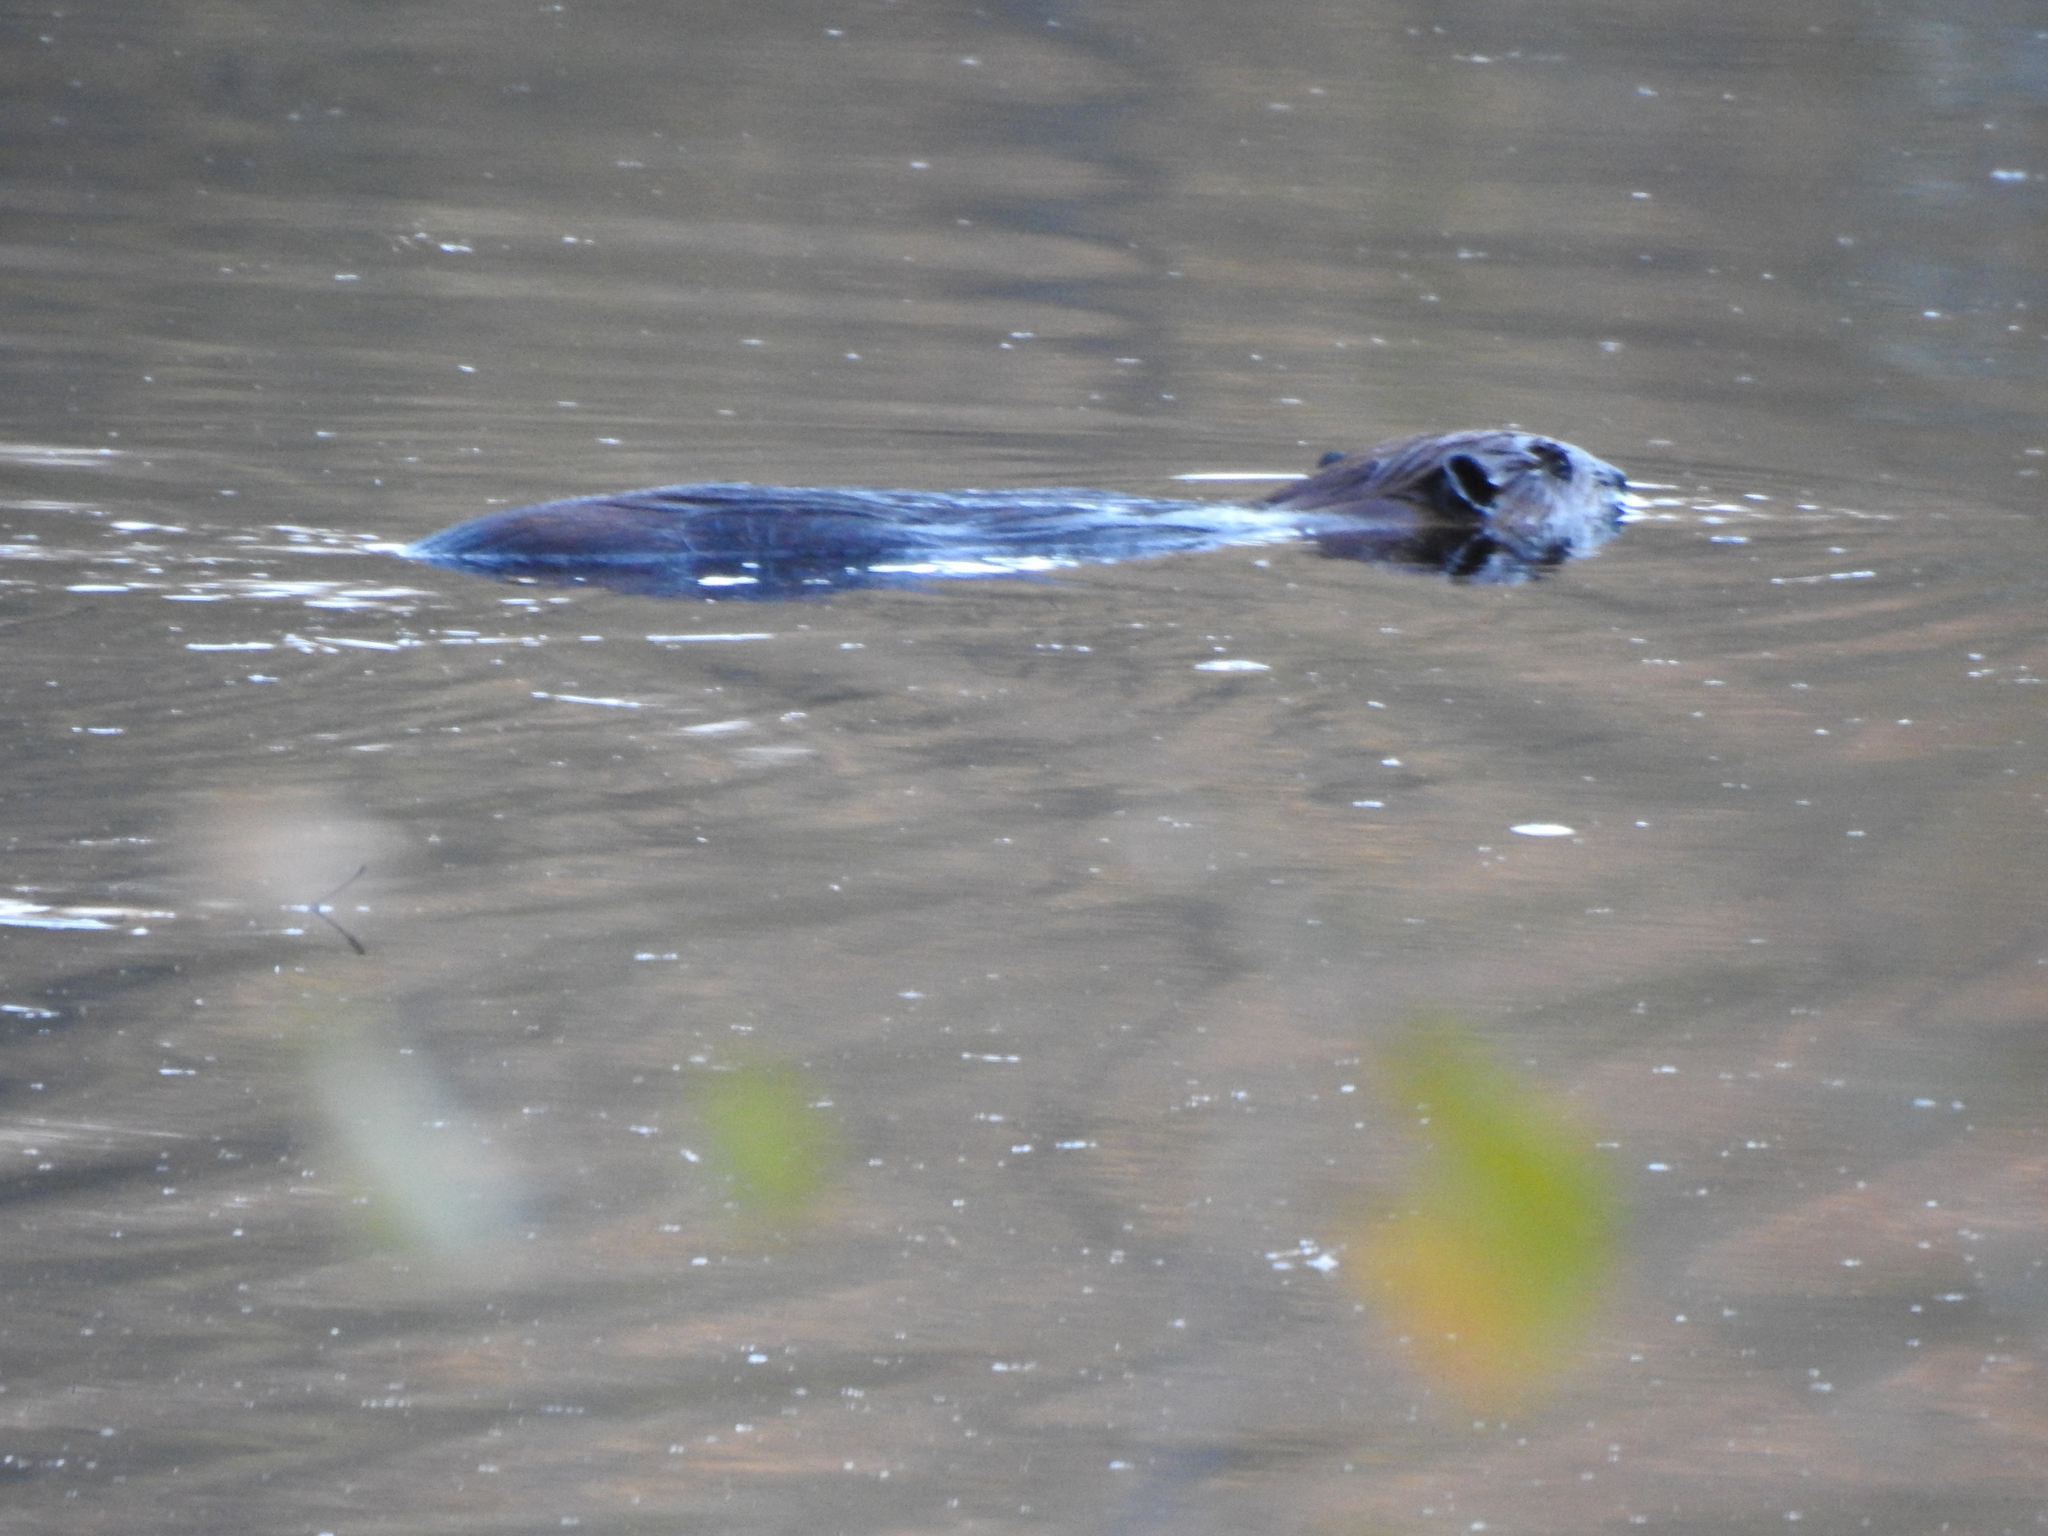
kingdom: Animalia
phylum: Chordata
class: Mammalia
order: Rodentia
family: Castoridae
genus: Castor
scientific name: Castor canadensis
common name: American beaver
